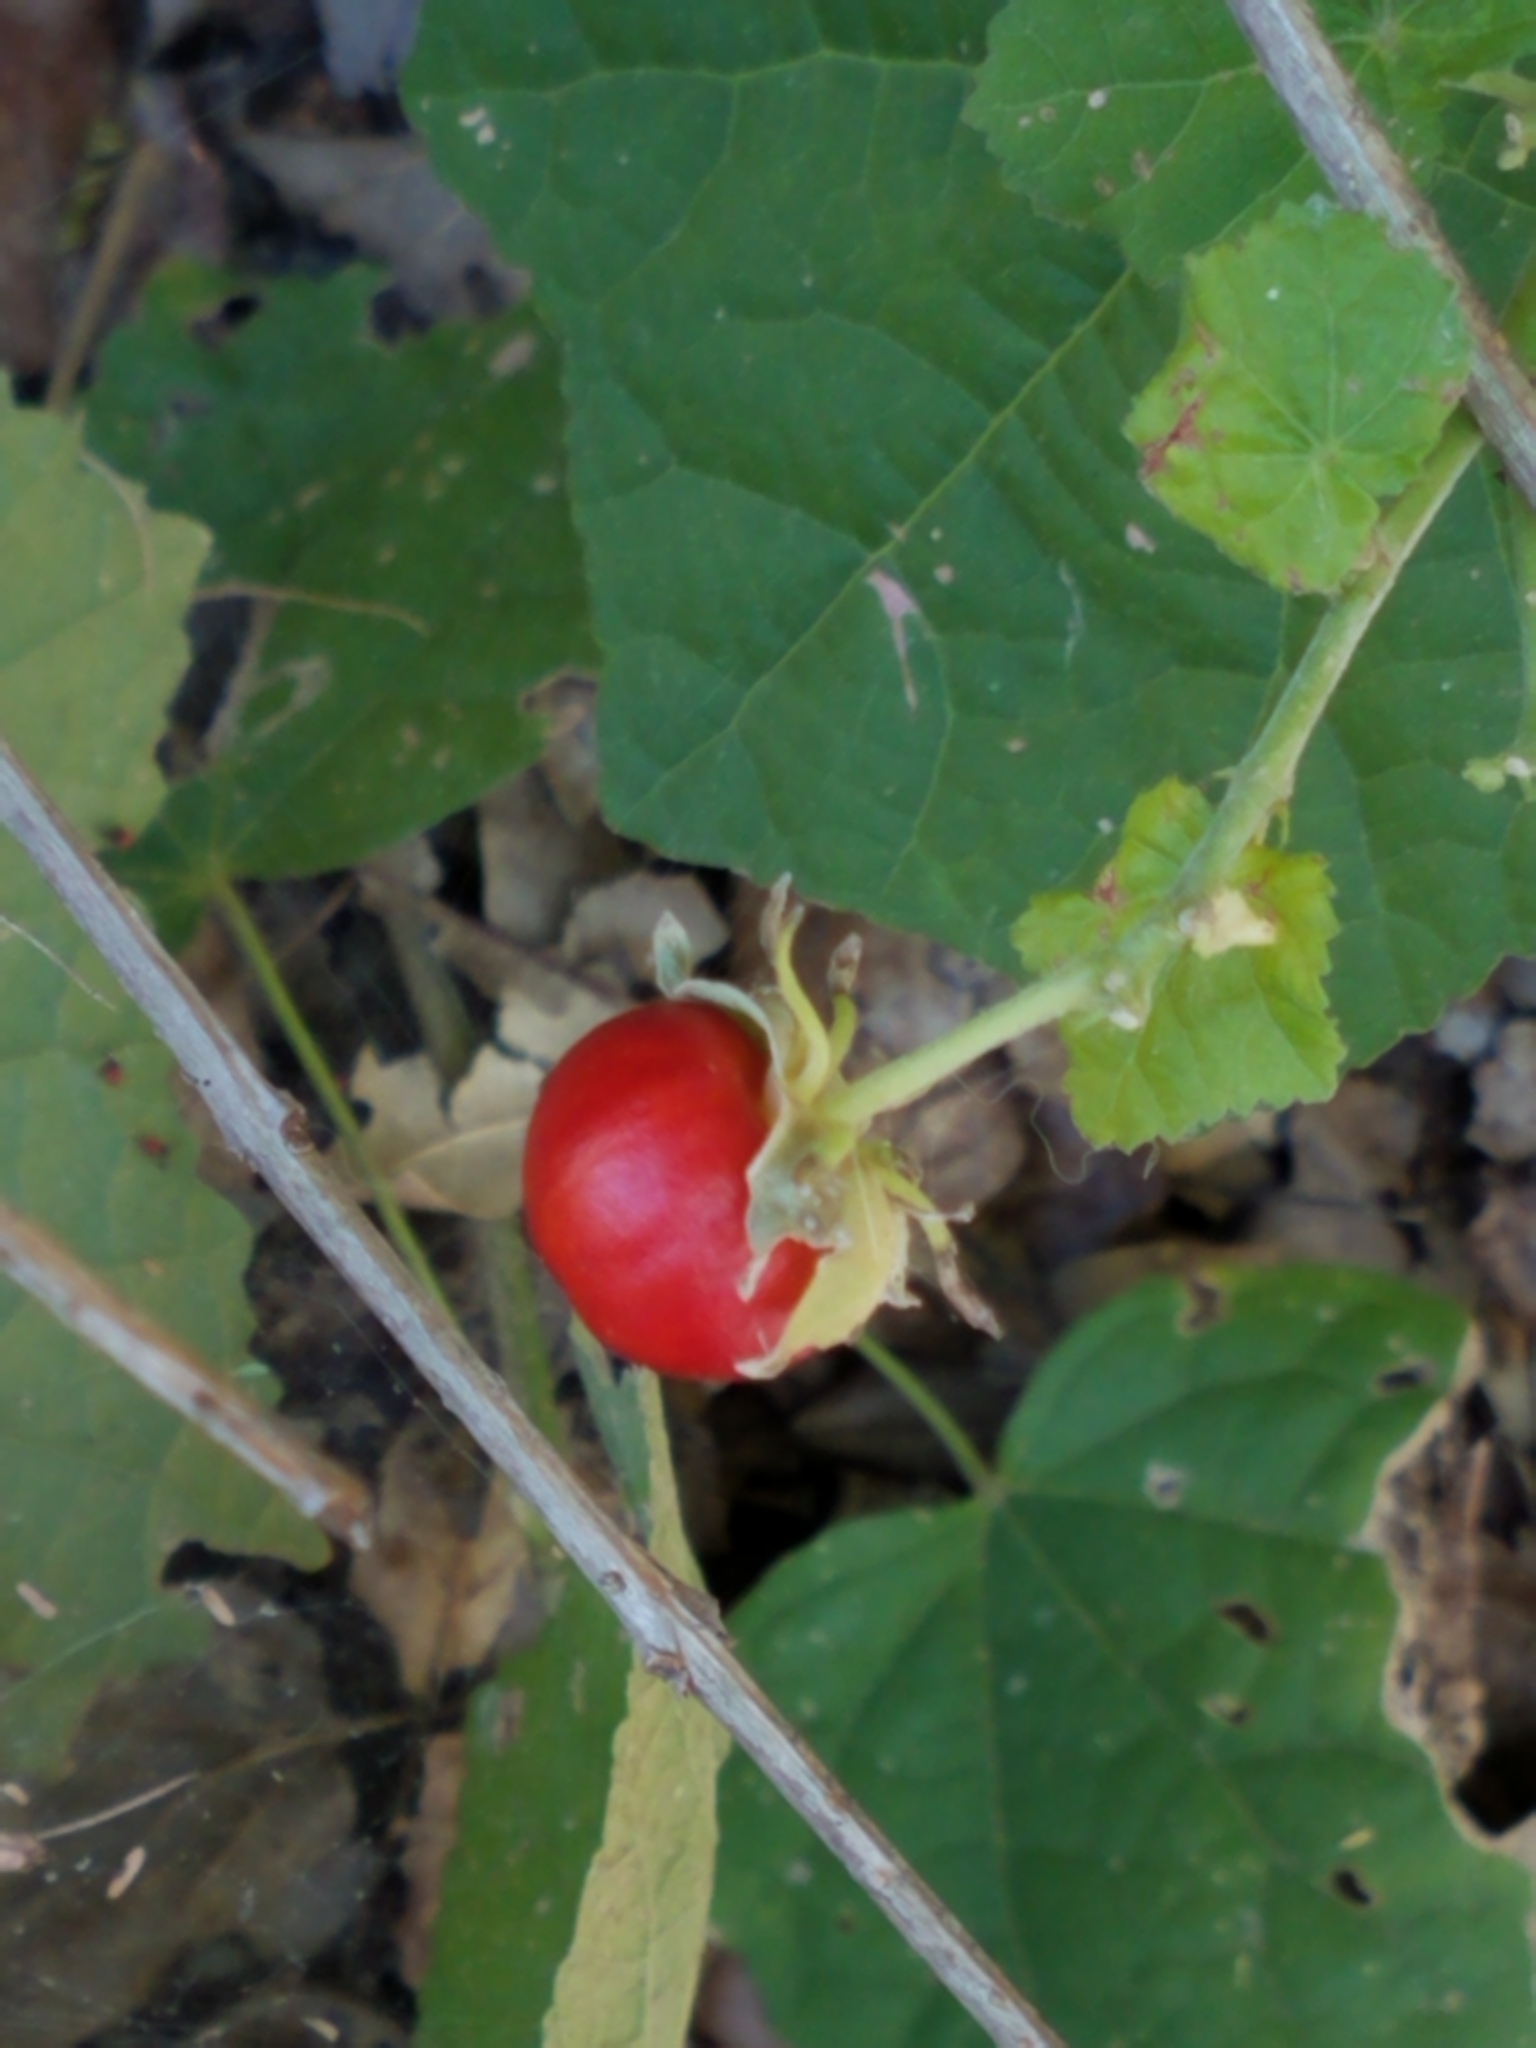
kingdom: Plantae
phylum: Tracheophyta
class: Magnoliopsida
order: Malvales
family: Malvaceae
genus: Malvaviscus
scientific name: Malvaviscus arboreus
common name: Wax mallow
